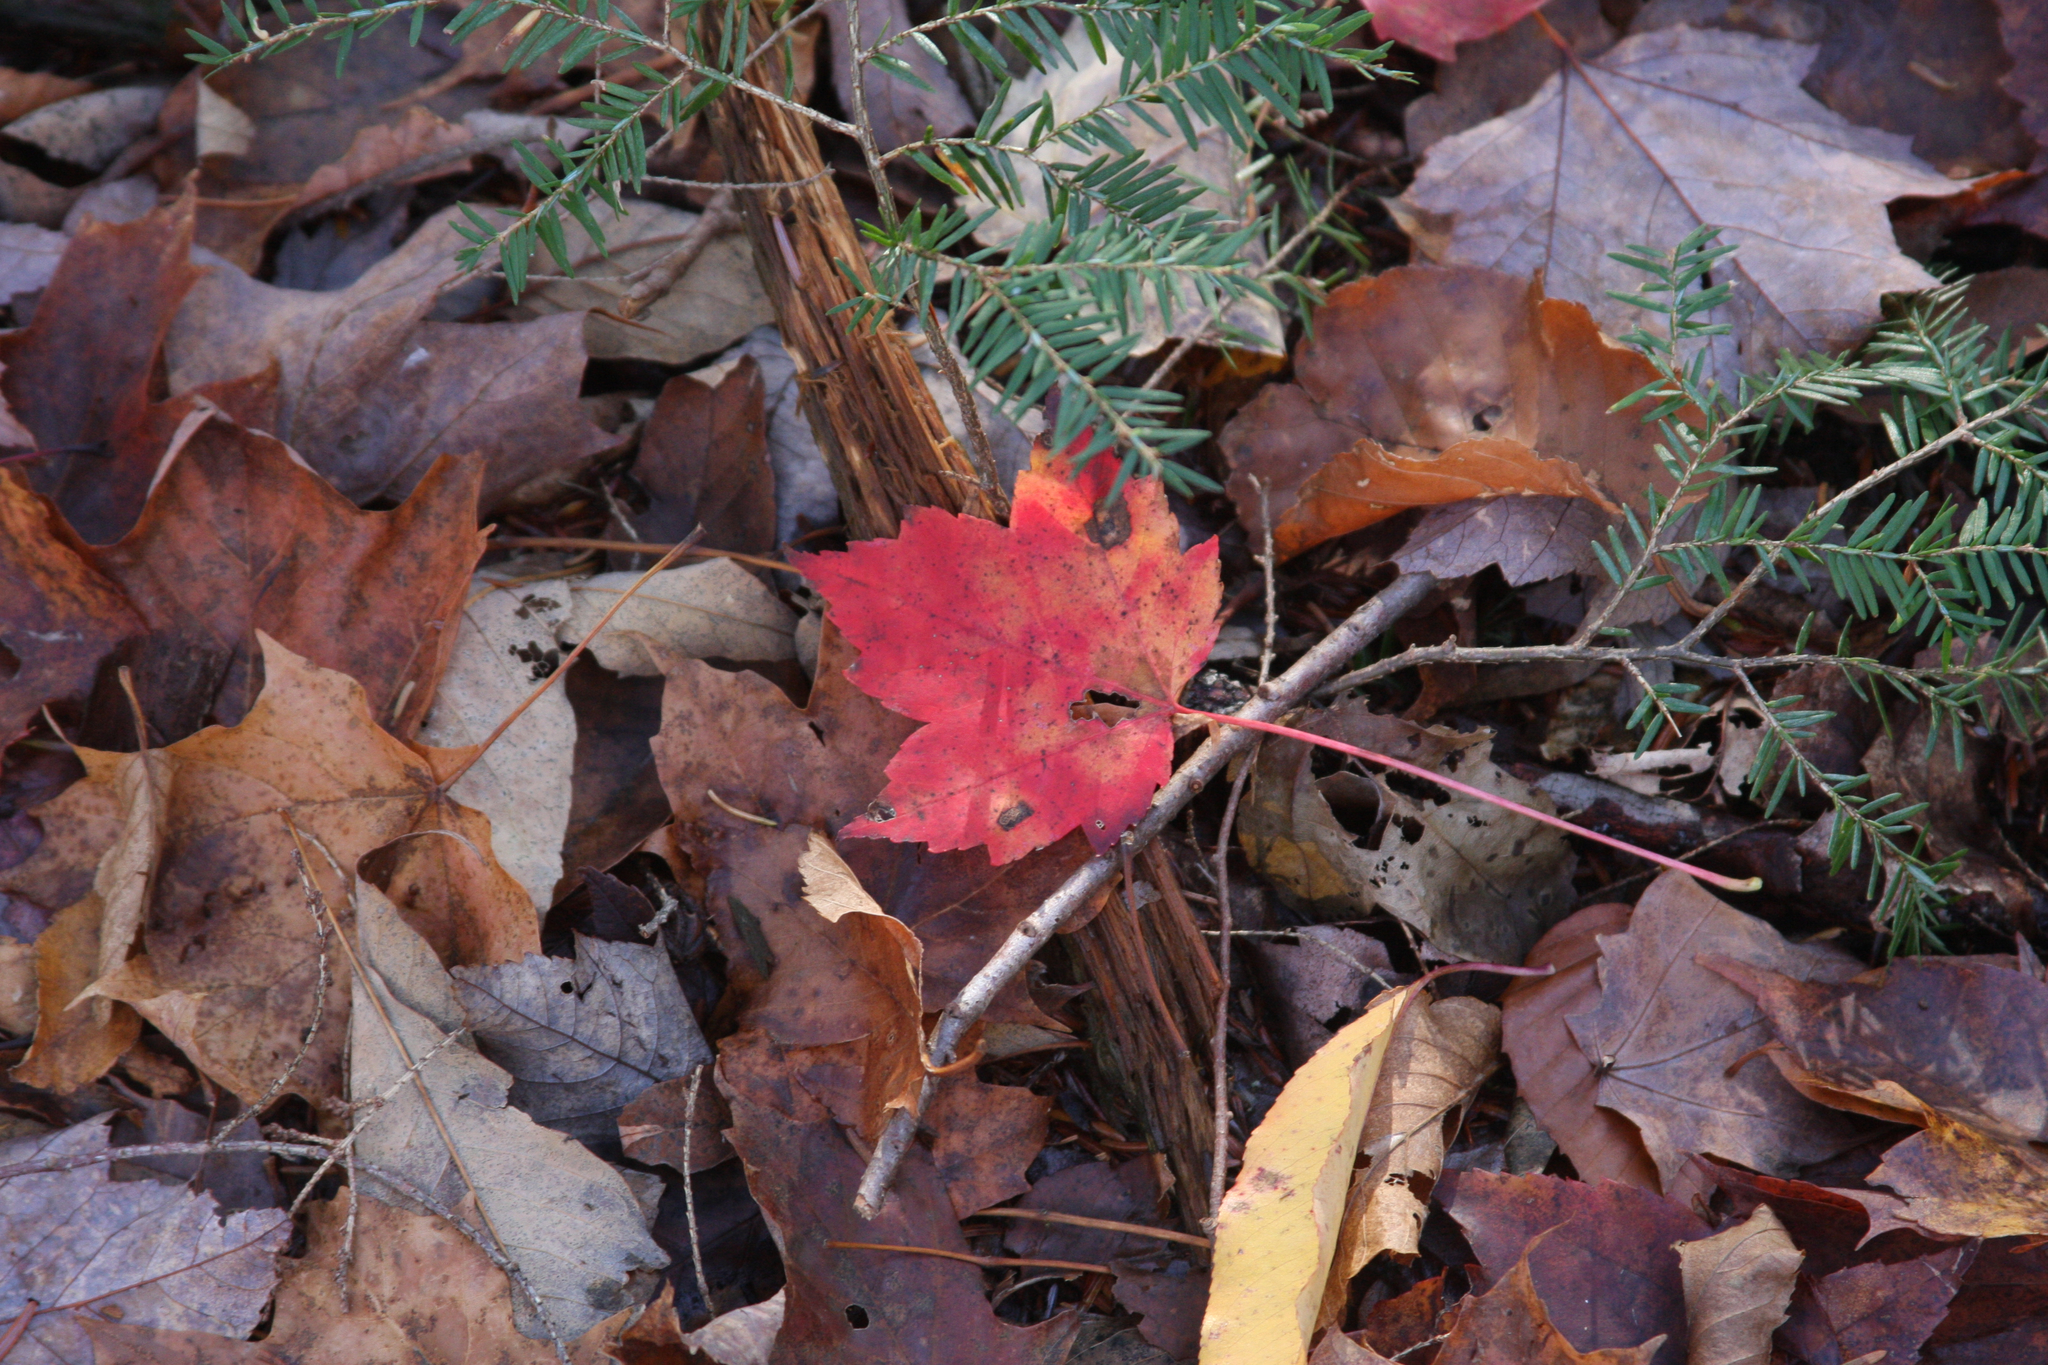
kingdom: Plantae
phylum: Tracheophyta
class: Magnoliopsida
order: Sapindales
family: Sapindaceae
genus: Acer
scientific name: Acer rubrum
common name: Red maple
